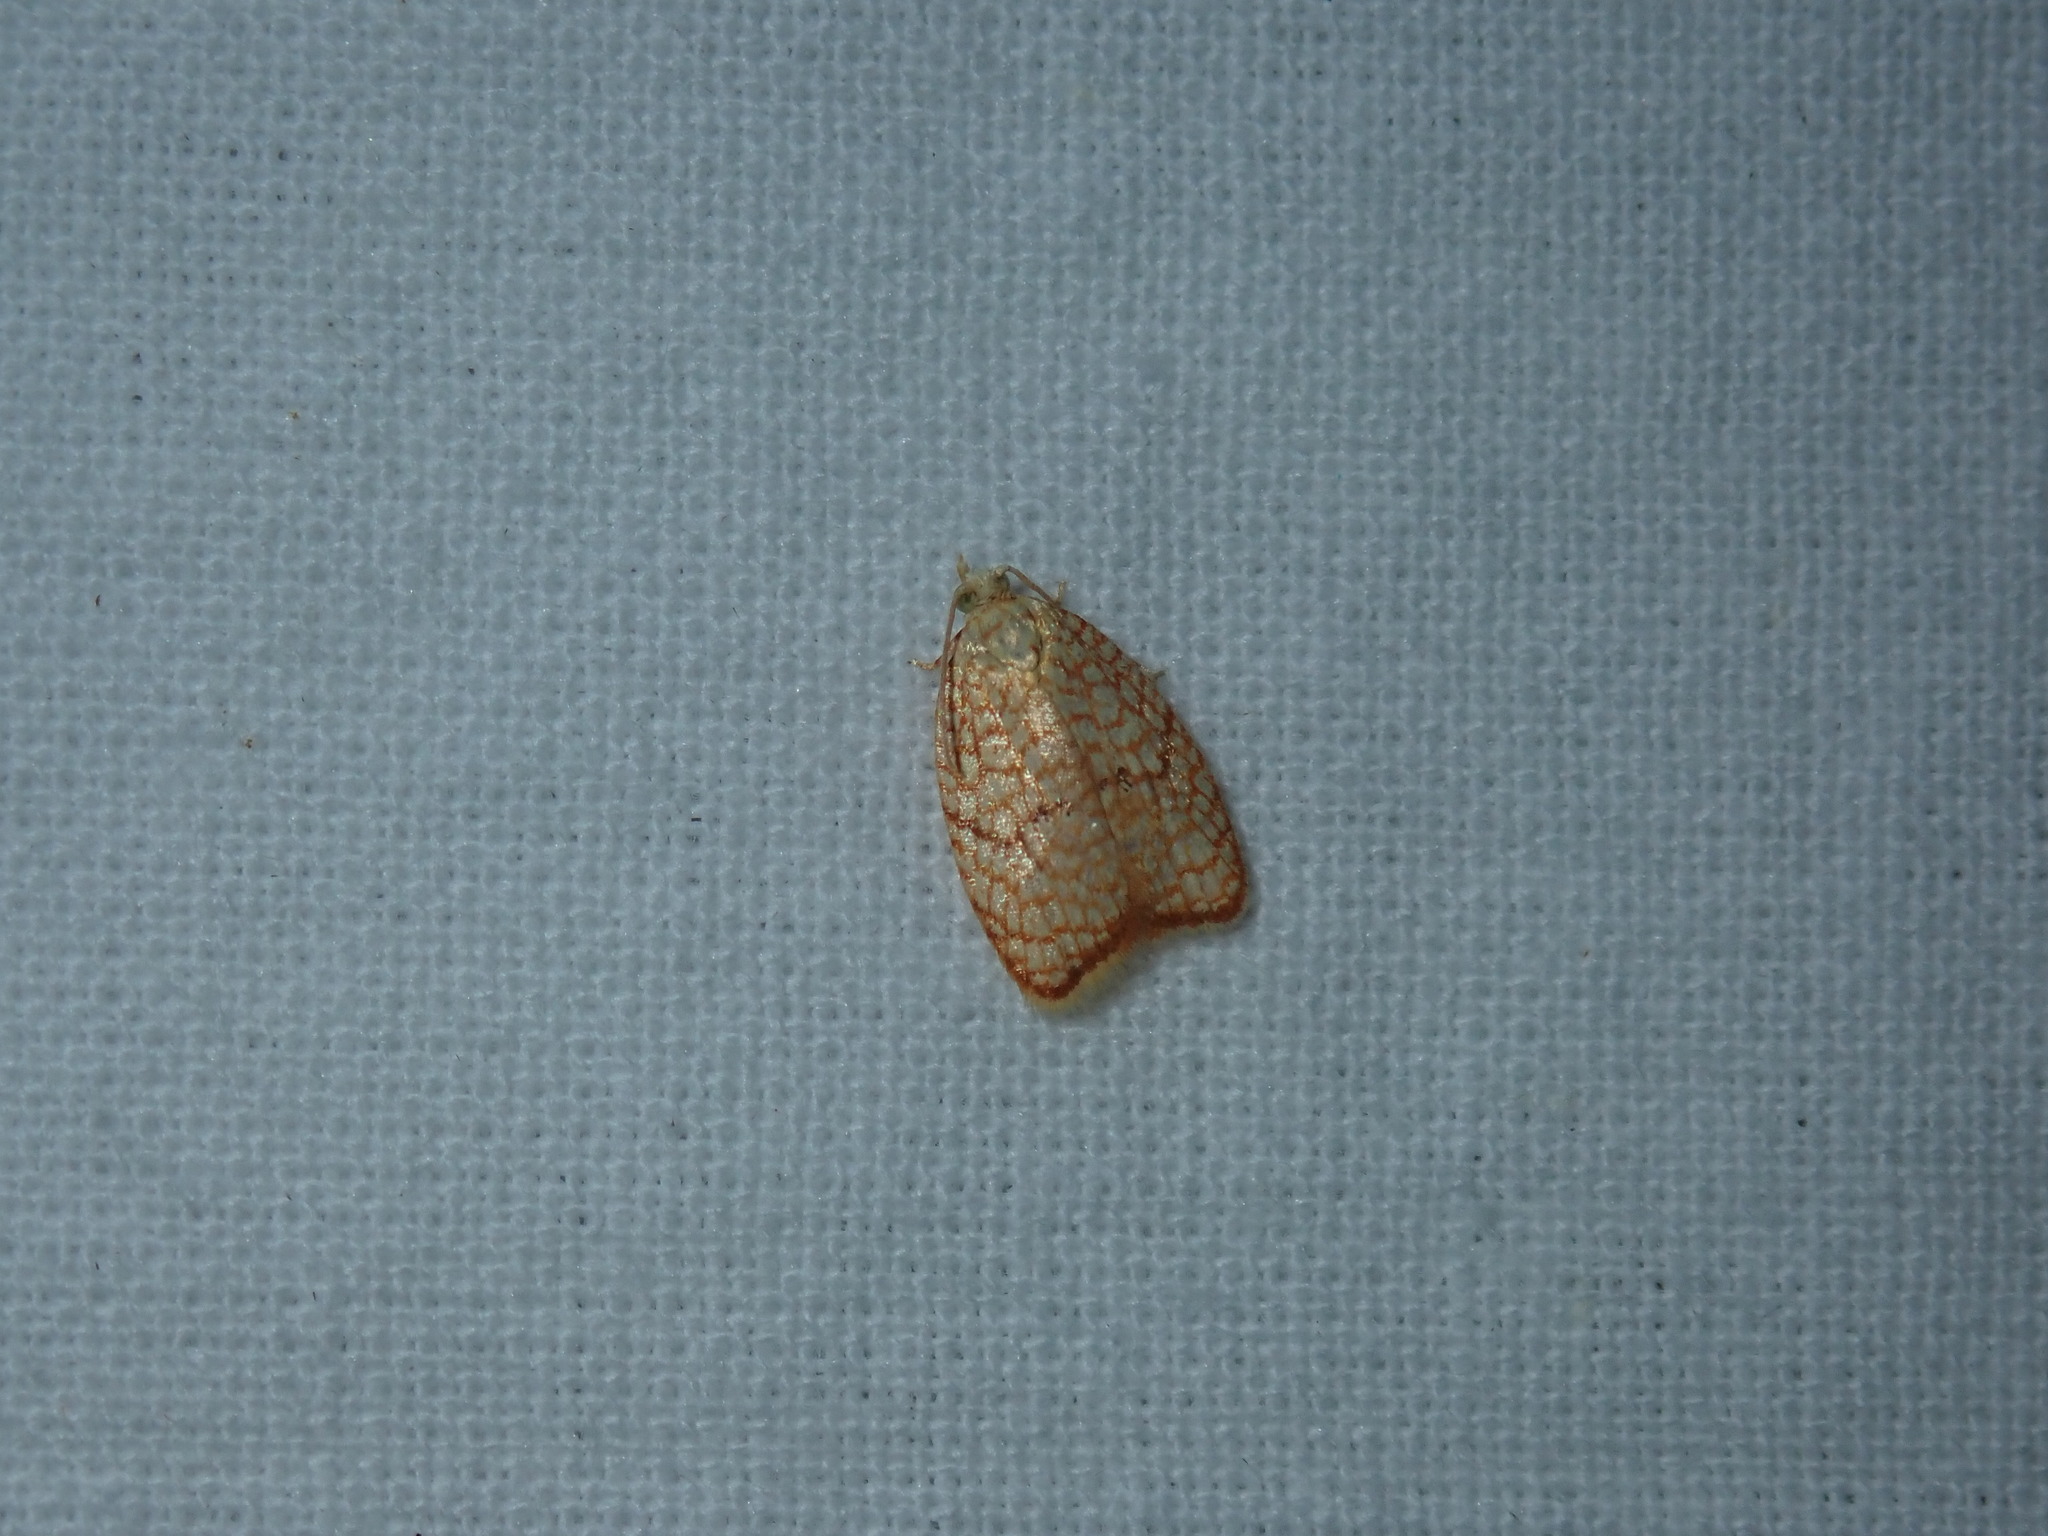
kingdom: Animalia
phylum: Arthropoda
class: Insecta
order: Lepidoptera
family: Tortricidae
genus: Acleris
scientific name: Acleris forsskaleana
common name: Maple button
